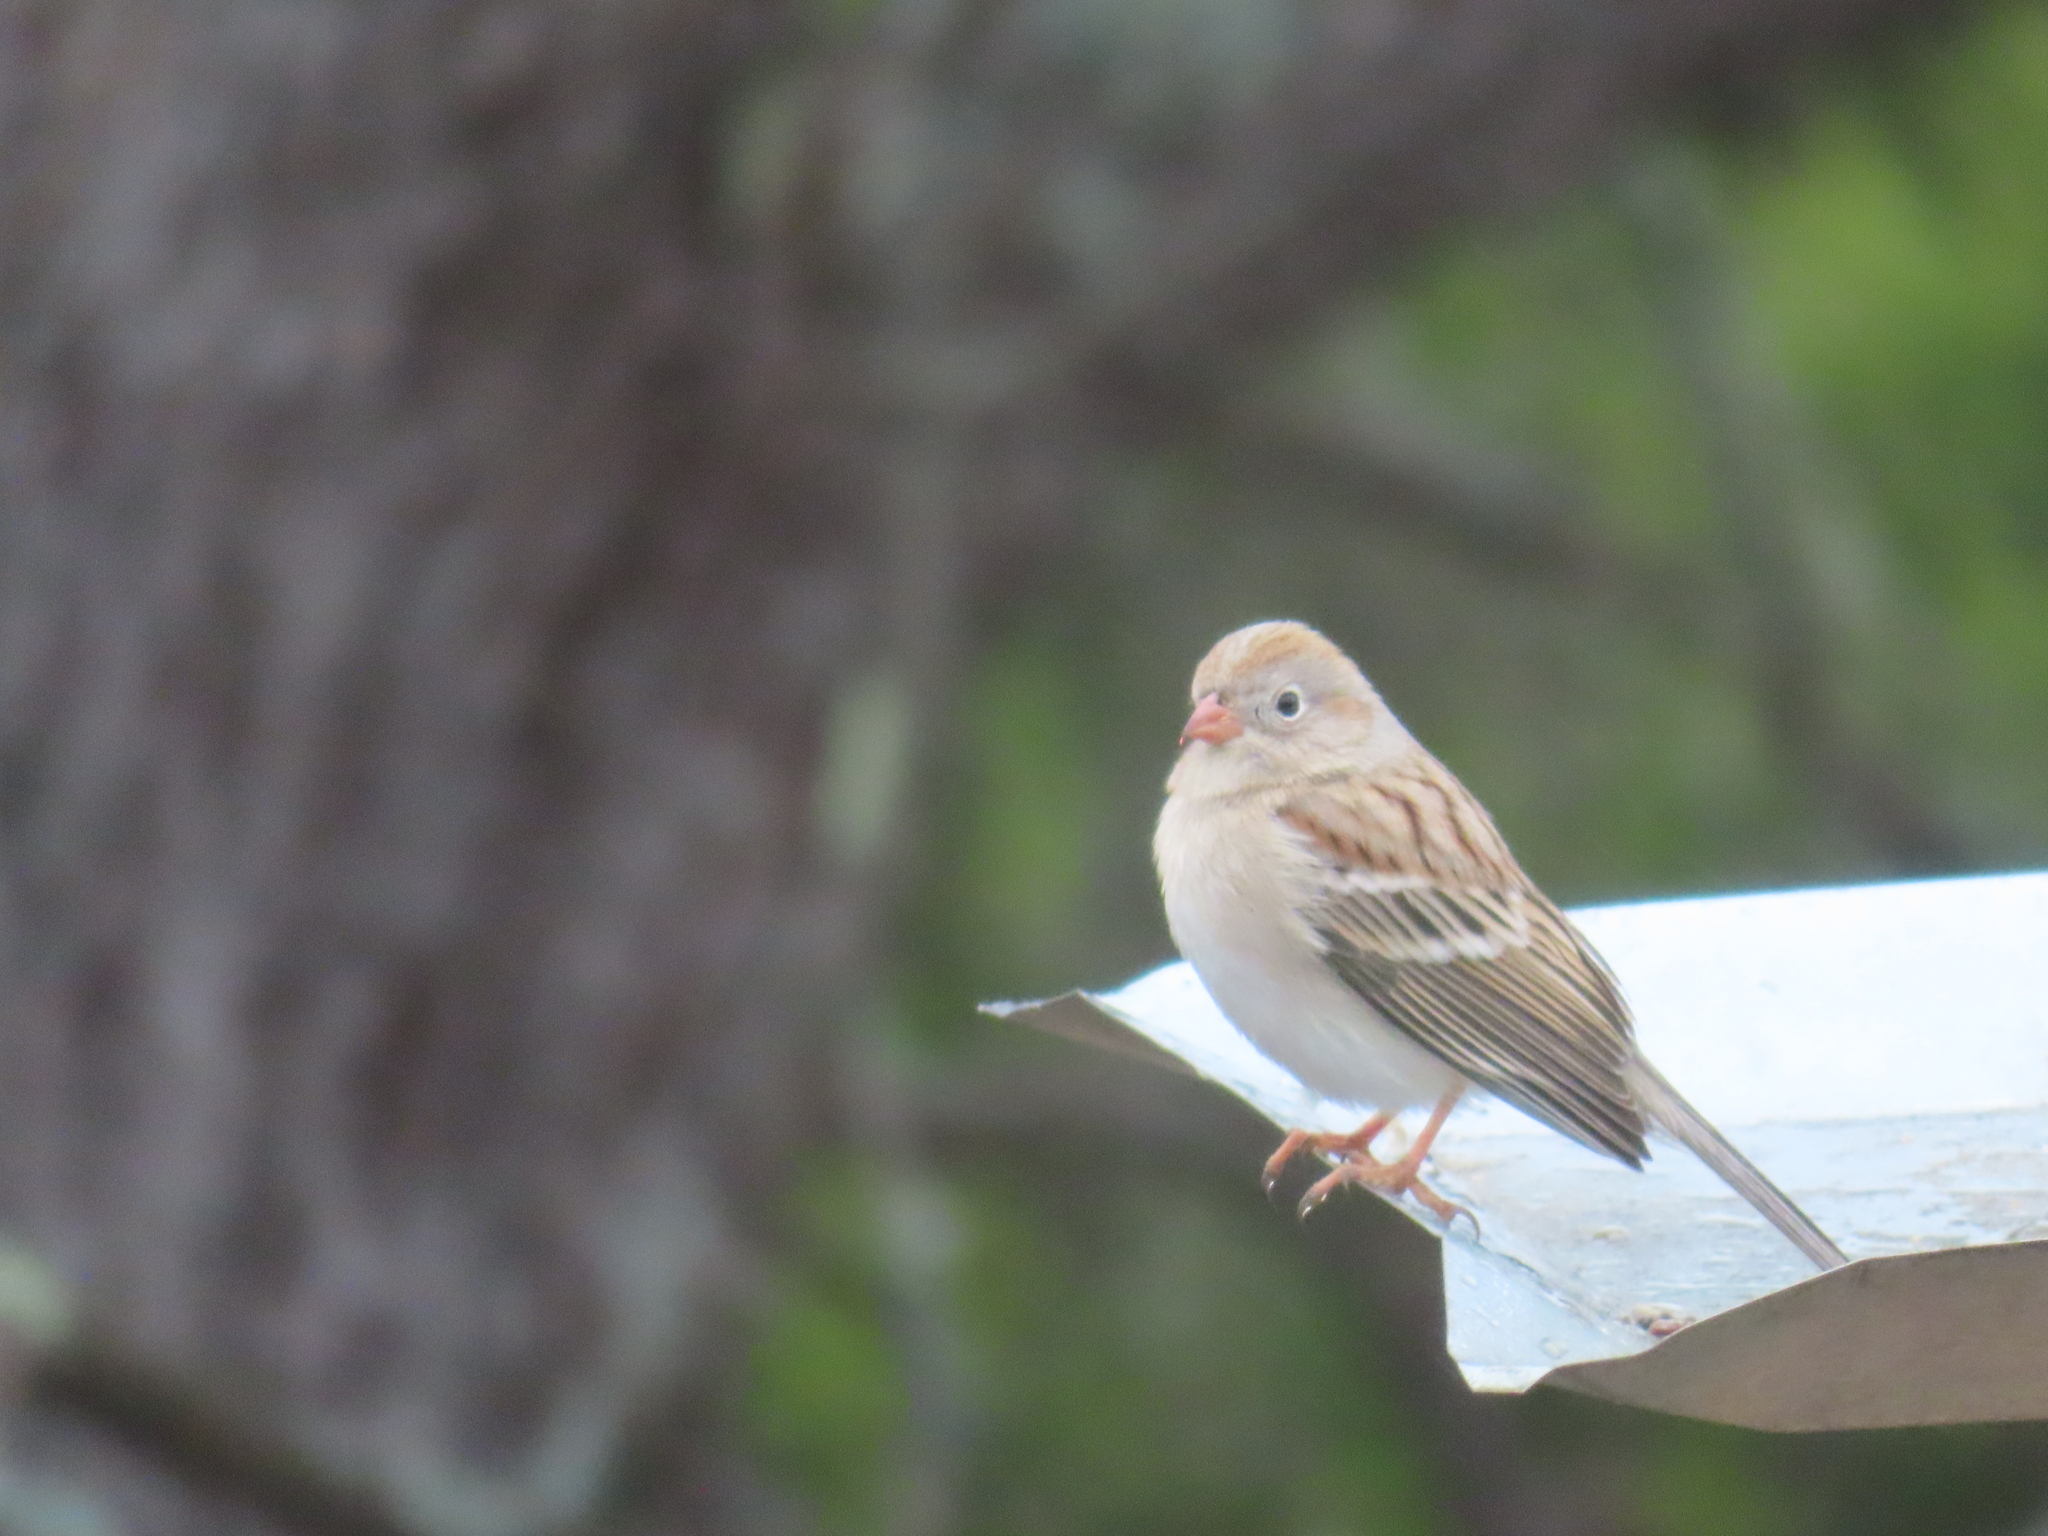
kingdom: Animalia
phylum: Chordata
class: Aves
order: Passeriformes
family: Passerellidae
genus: Spizella
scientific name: Spizella pusilla
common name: Field sparrow
